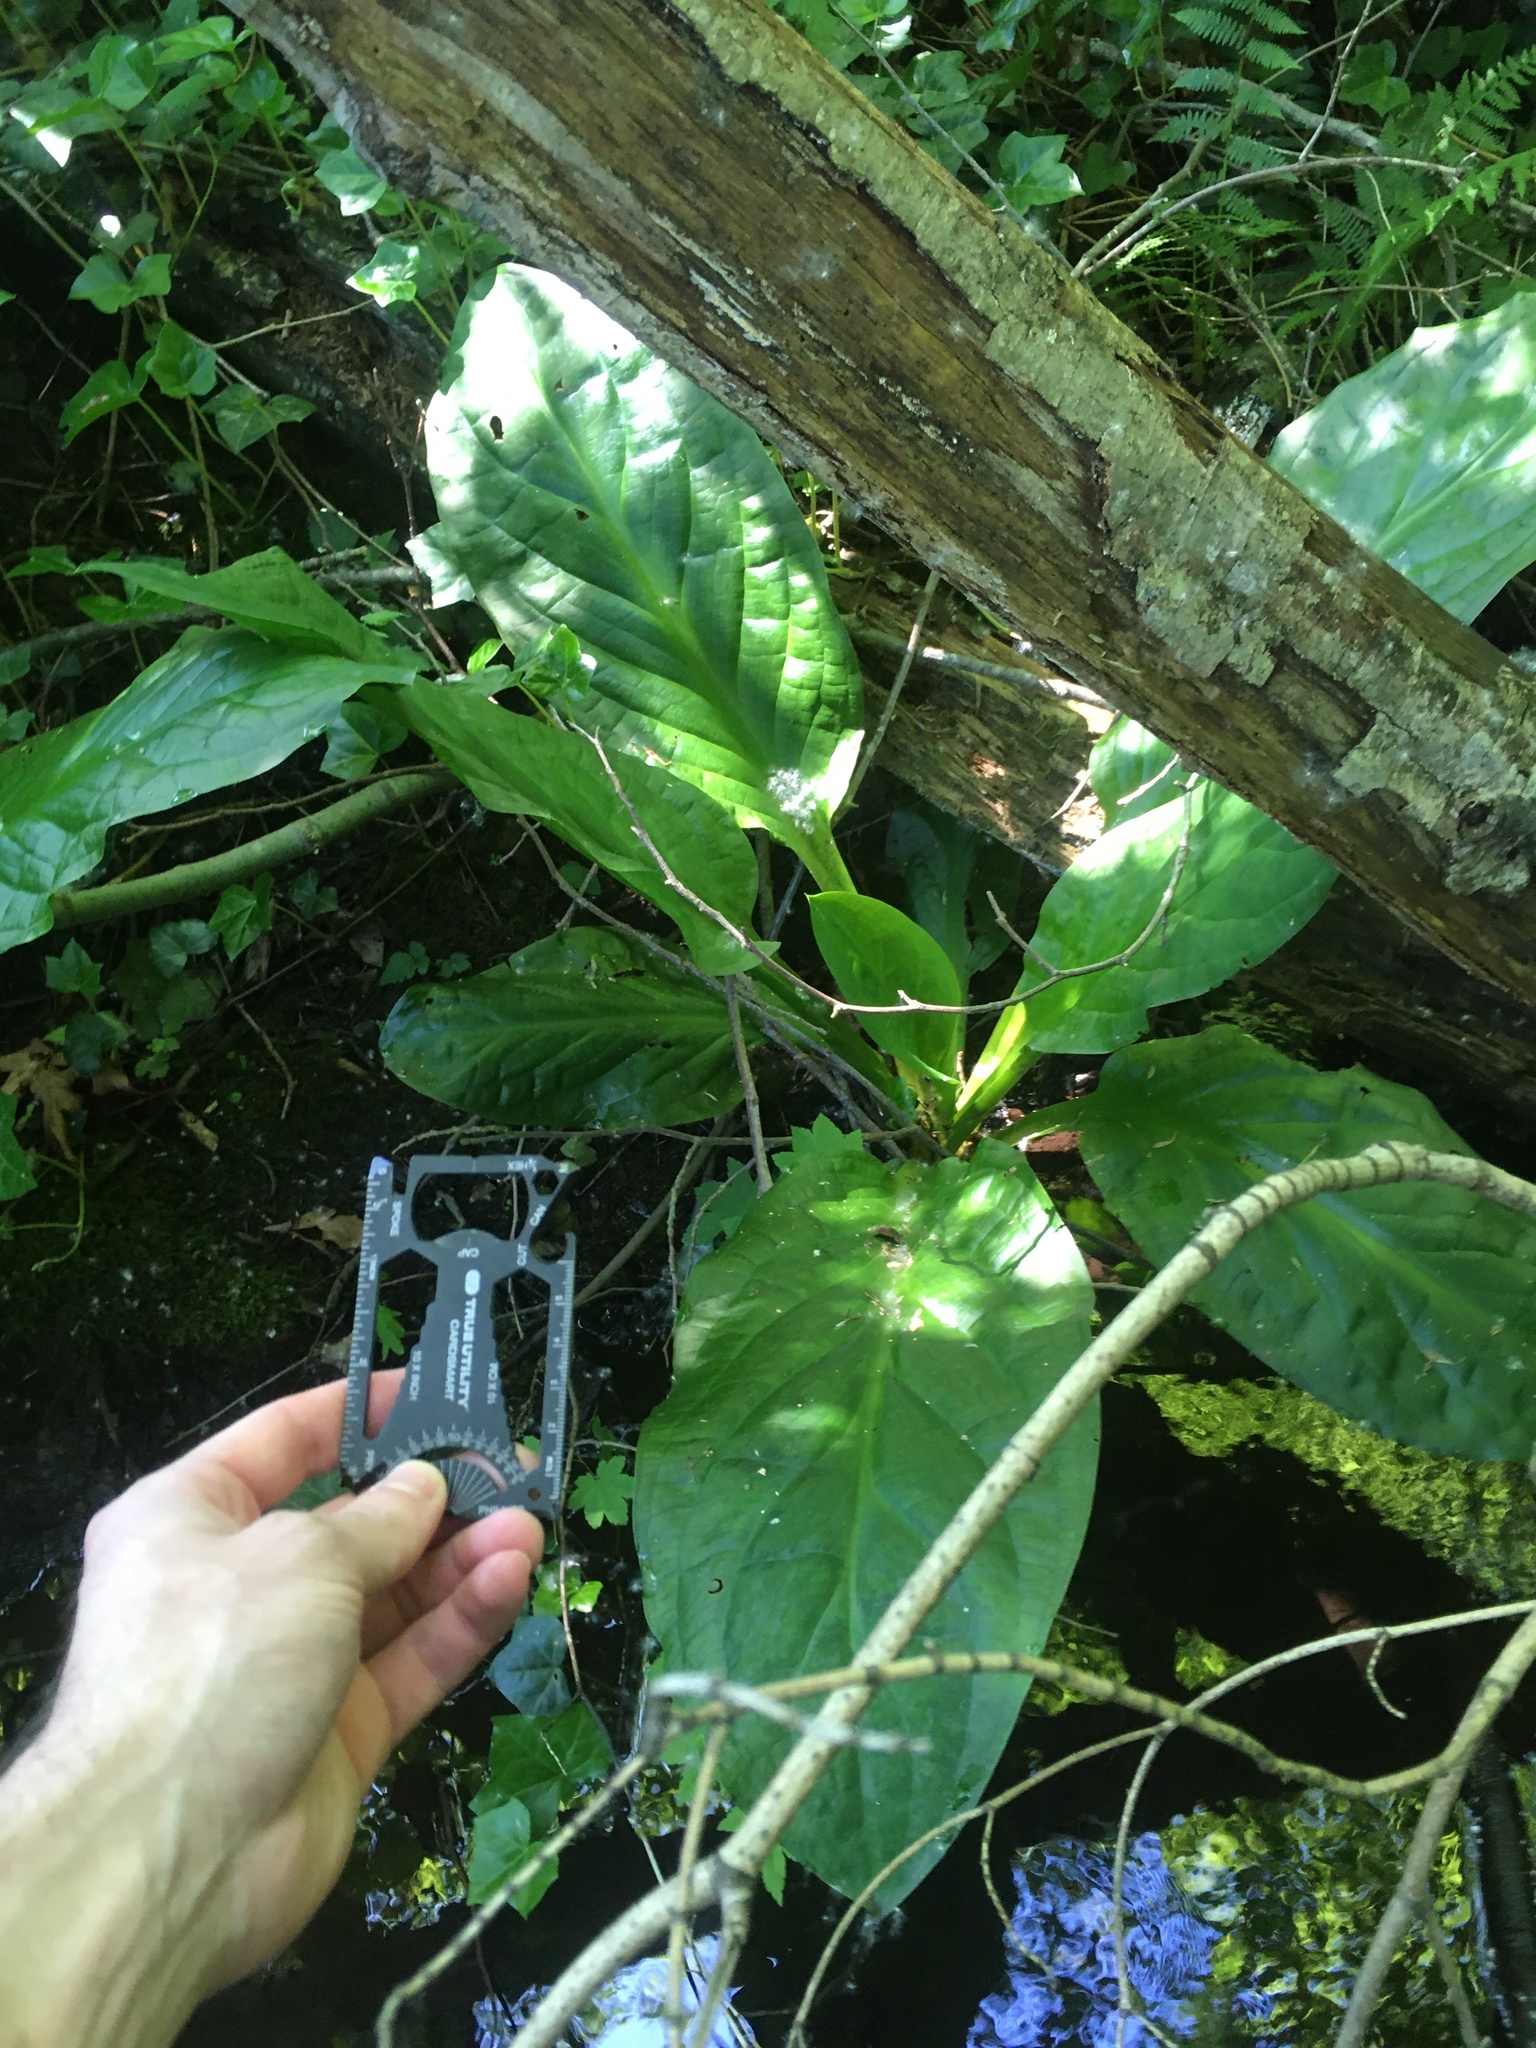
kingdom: Plantae
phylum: Tracheophyta
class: Liliopsida
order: Alismatales
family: Araceae
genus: Lysichiton
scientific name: Lysichiton americanus
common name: American skunk cabbage
